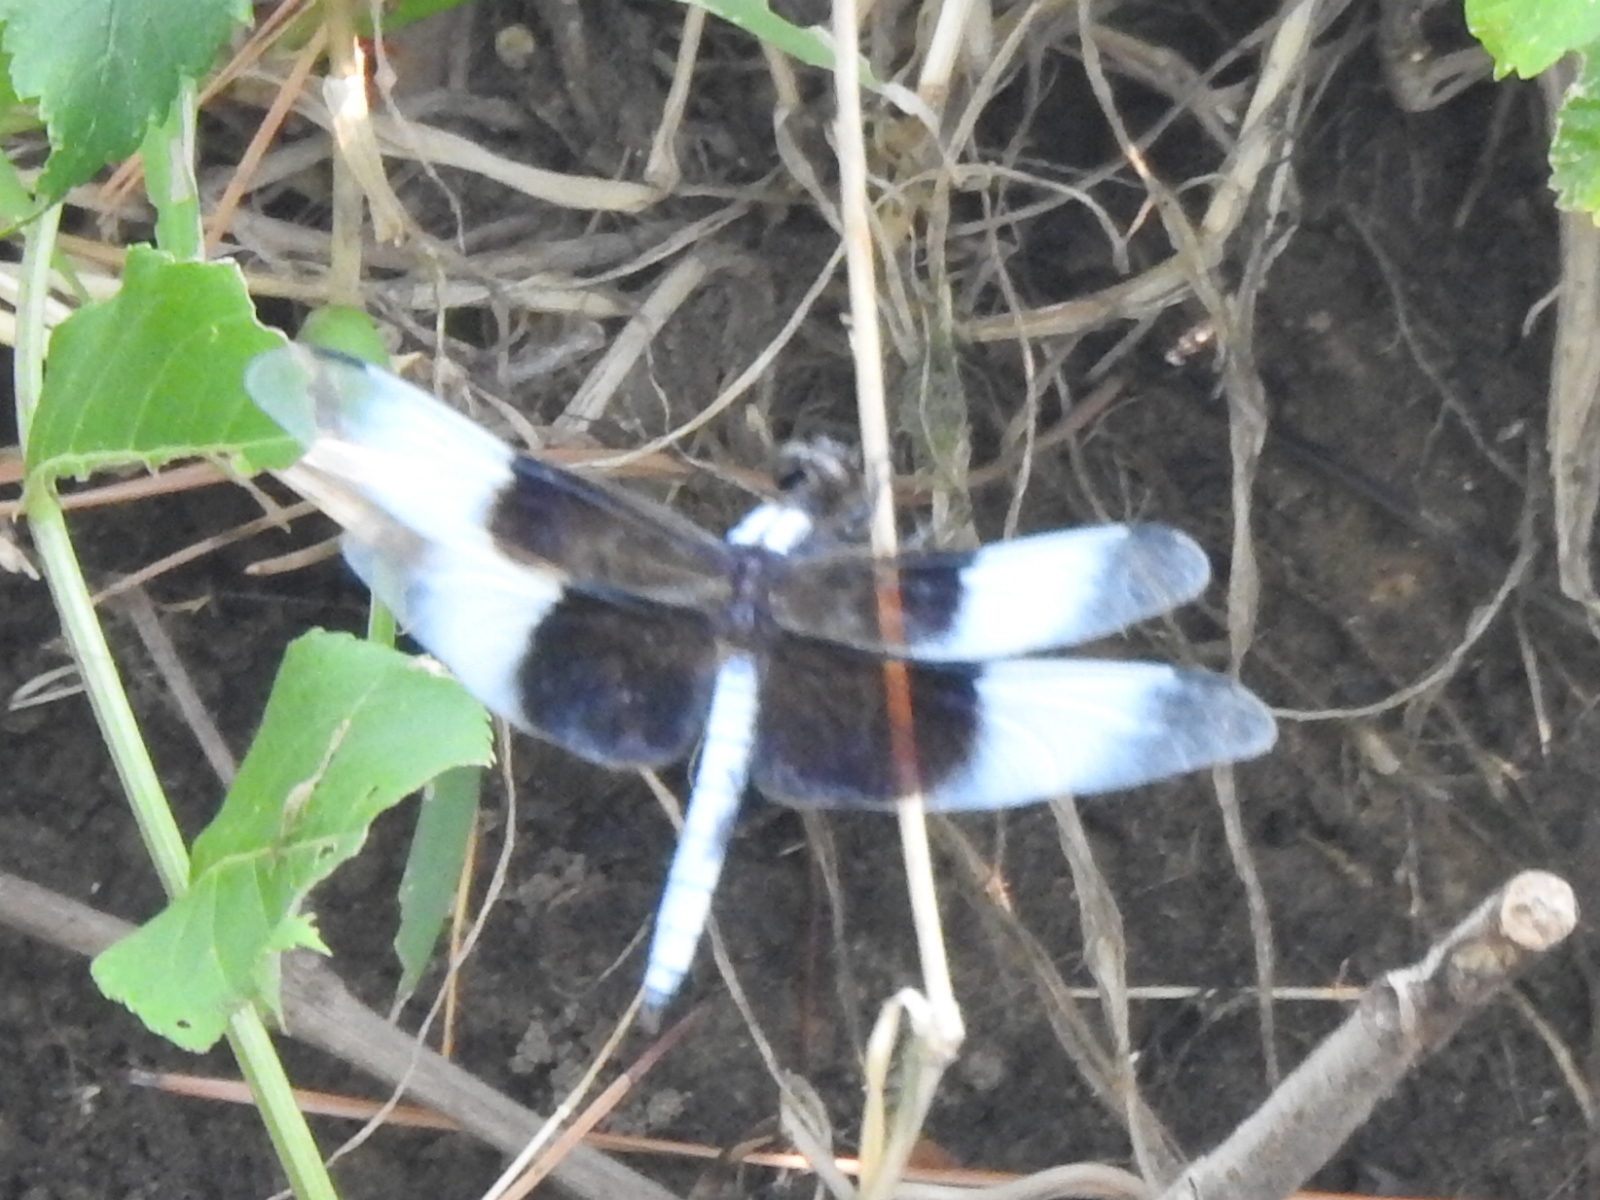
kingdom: Animalia
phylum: Arthropoda
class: Insecta
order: Odonata
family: Libellulidae
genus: Libellula
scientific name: Libellula luctuosa
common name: Widow skimmer
